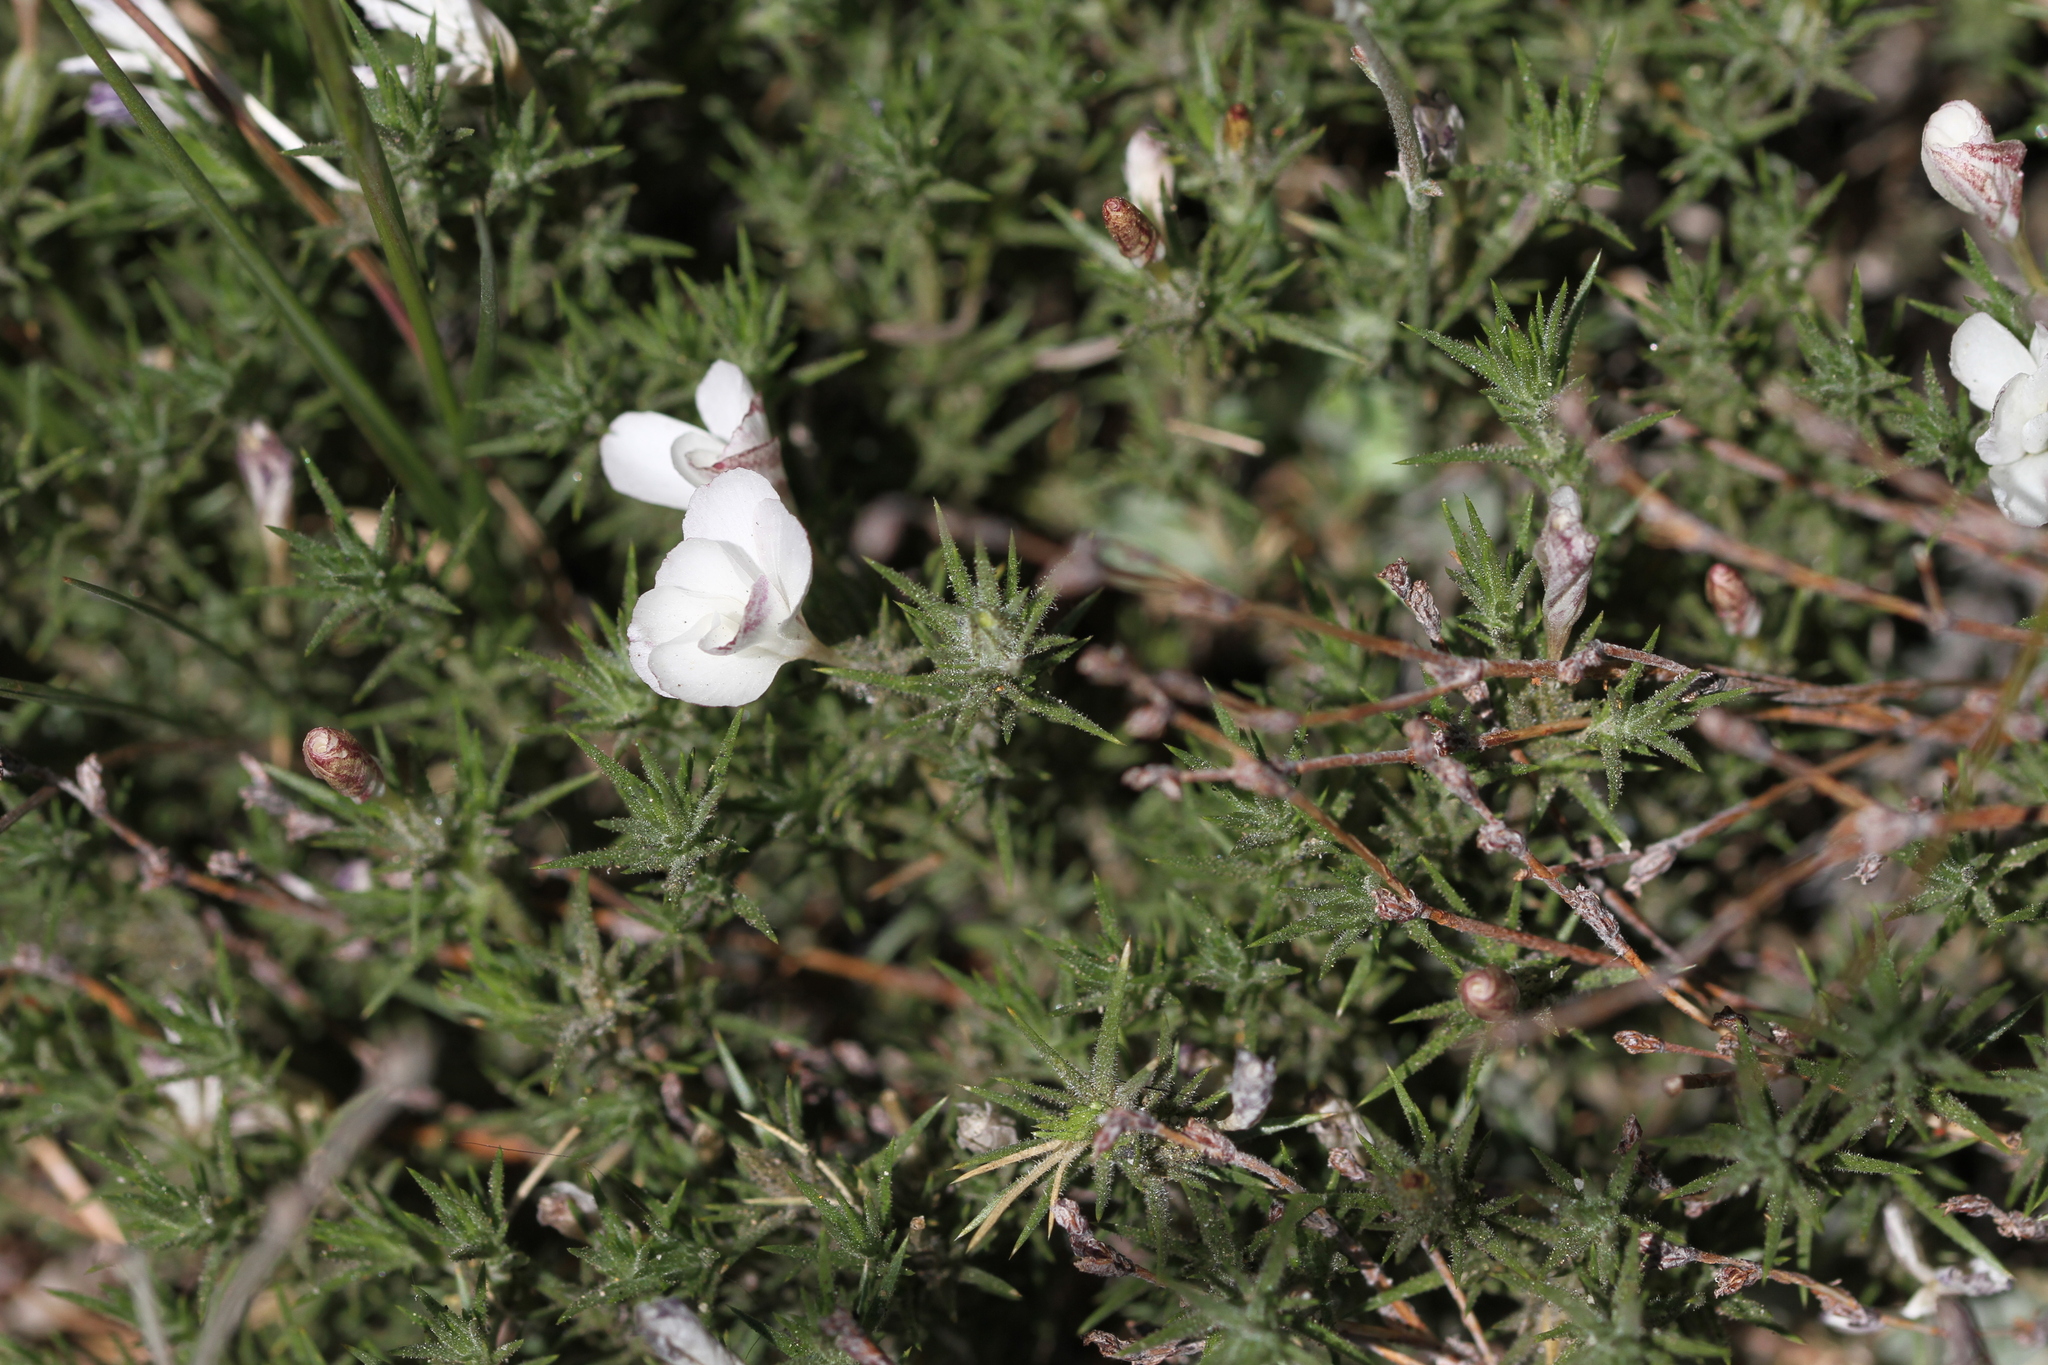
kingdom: Plantae
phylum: Tracheophyta
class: Magnoliopsida
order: Ericales
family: Polemoniaceae
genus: Linanthus
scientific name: Linanthus pungens
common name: Granite prickly phlox
